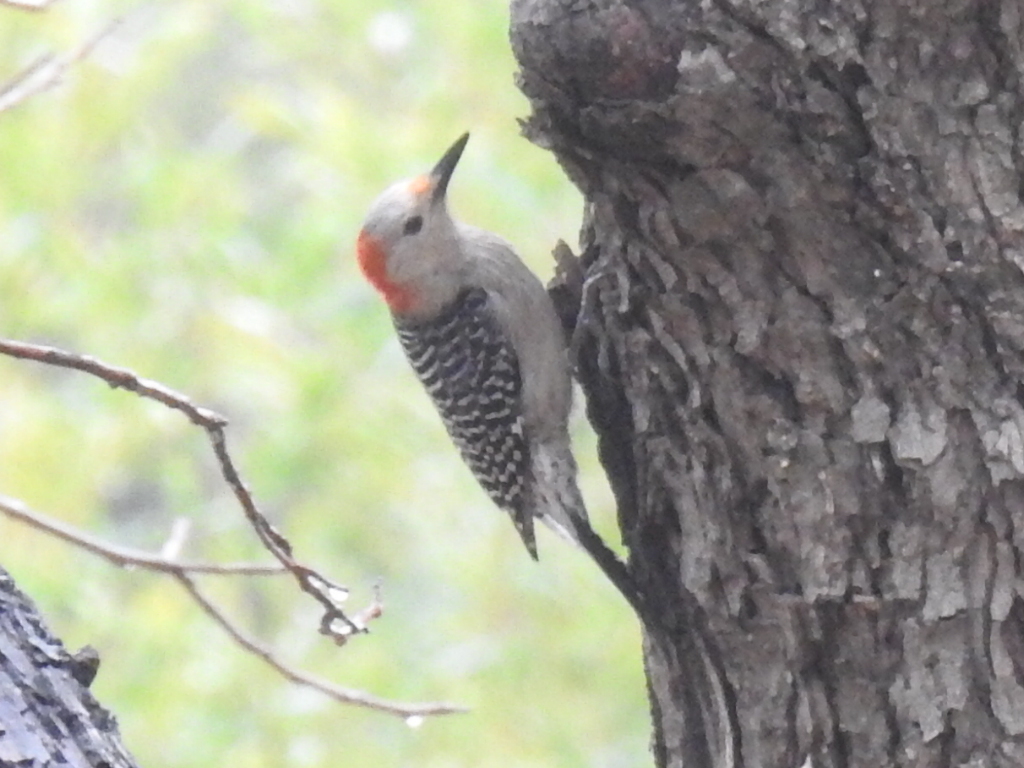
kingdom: Animalia
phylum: Chordata
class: Aves
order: Piciformes
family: Picidae
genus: Melanerpes
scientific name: Melanerpes carolinus
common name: Red-bellied woodpecker
